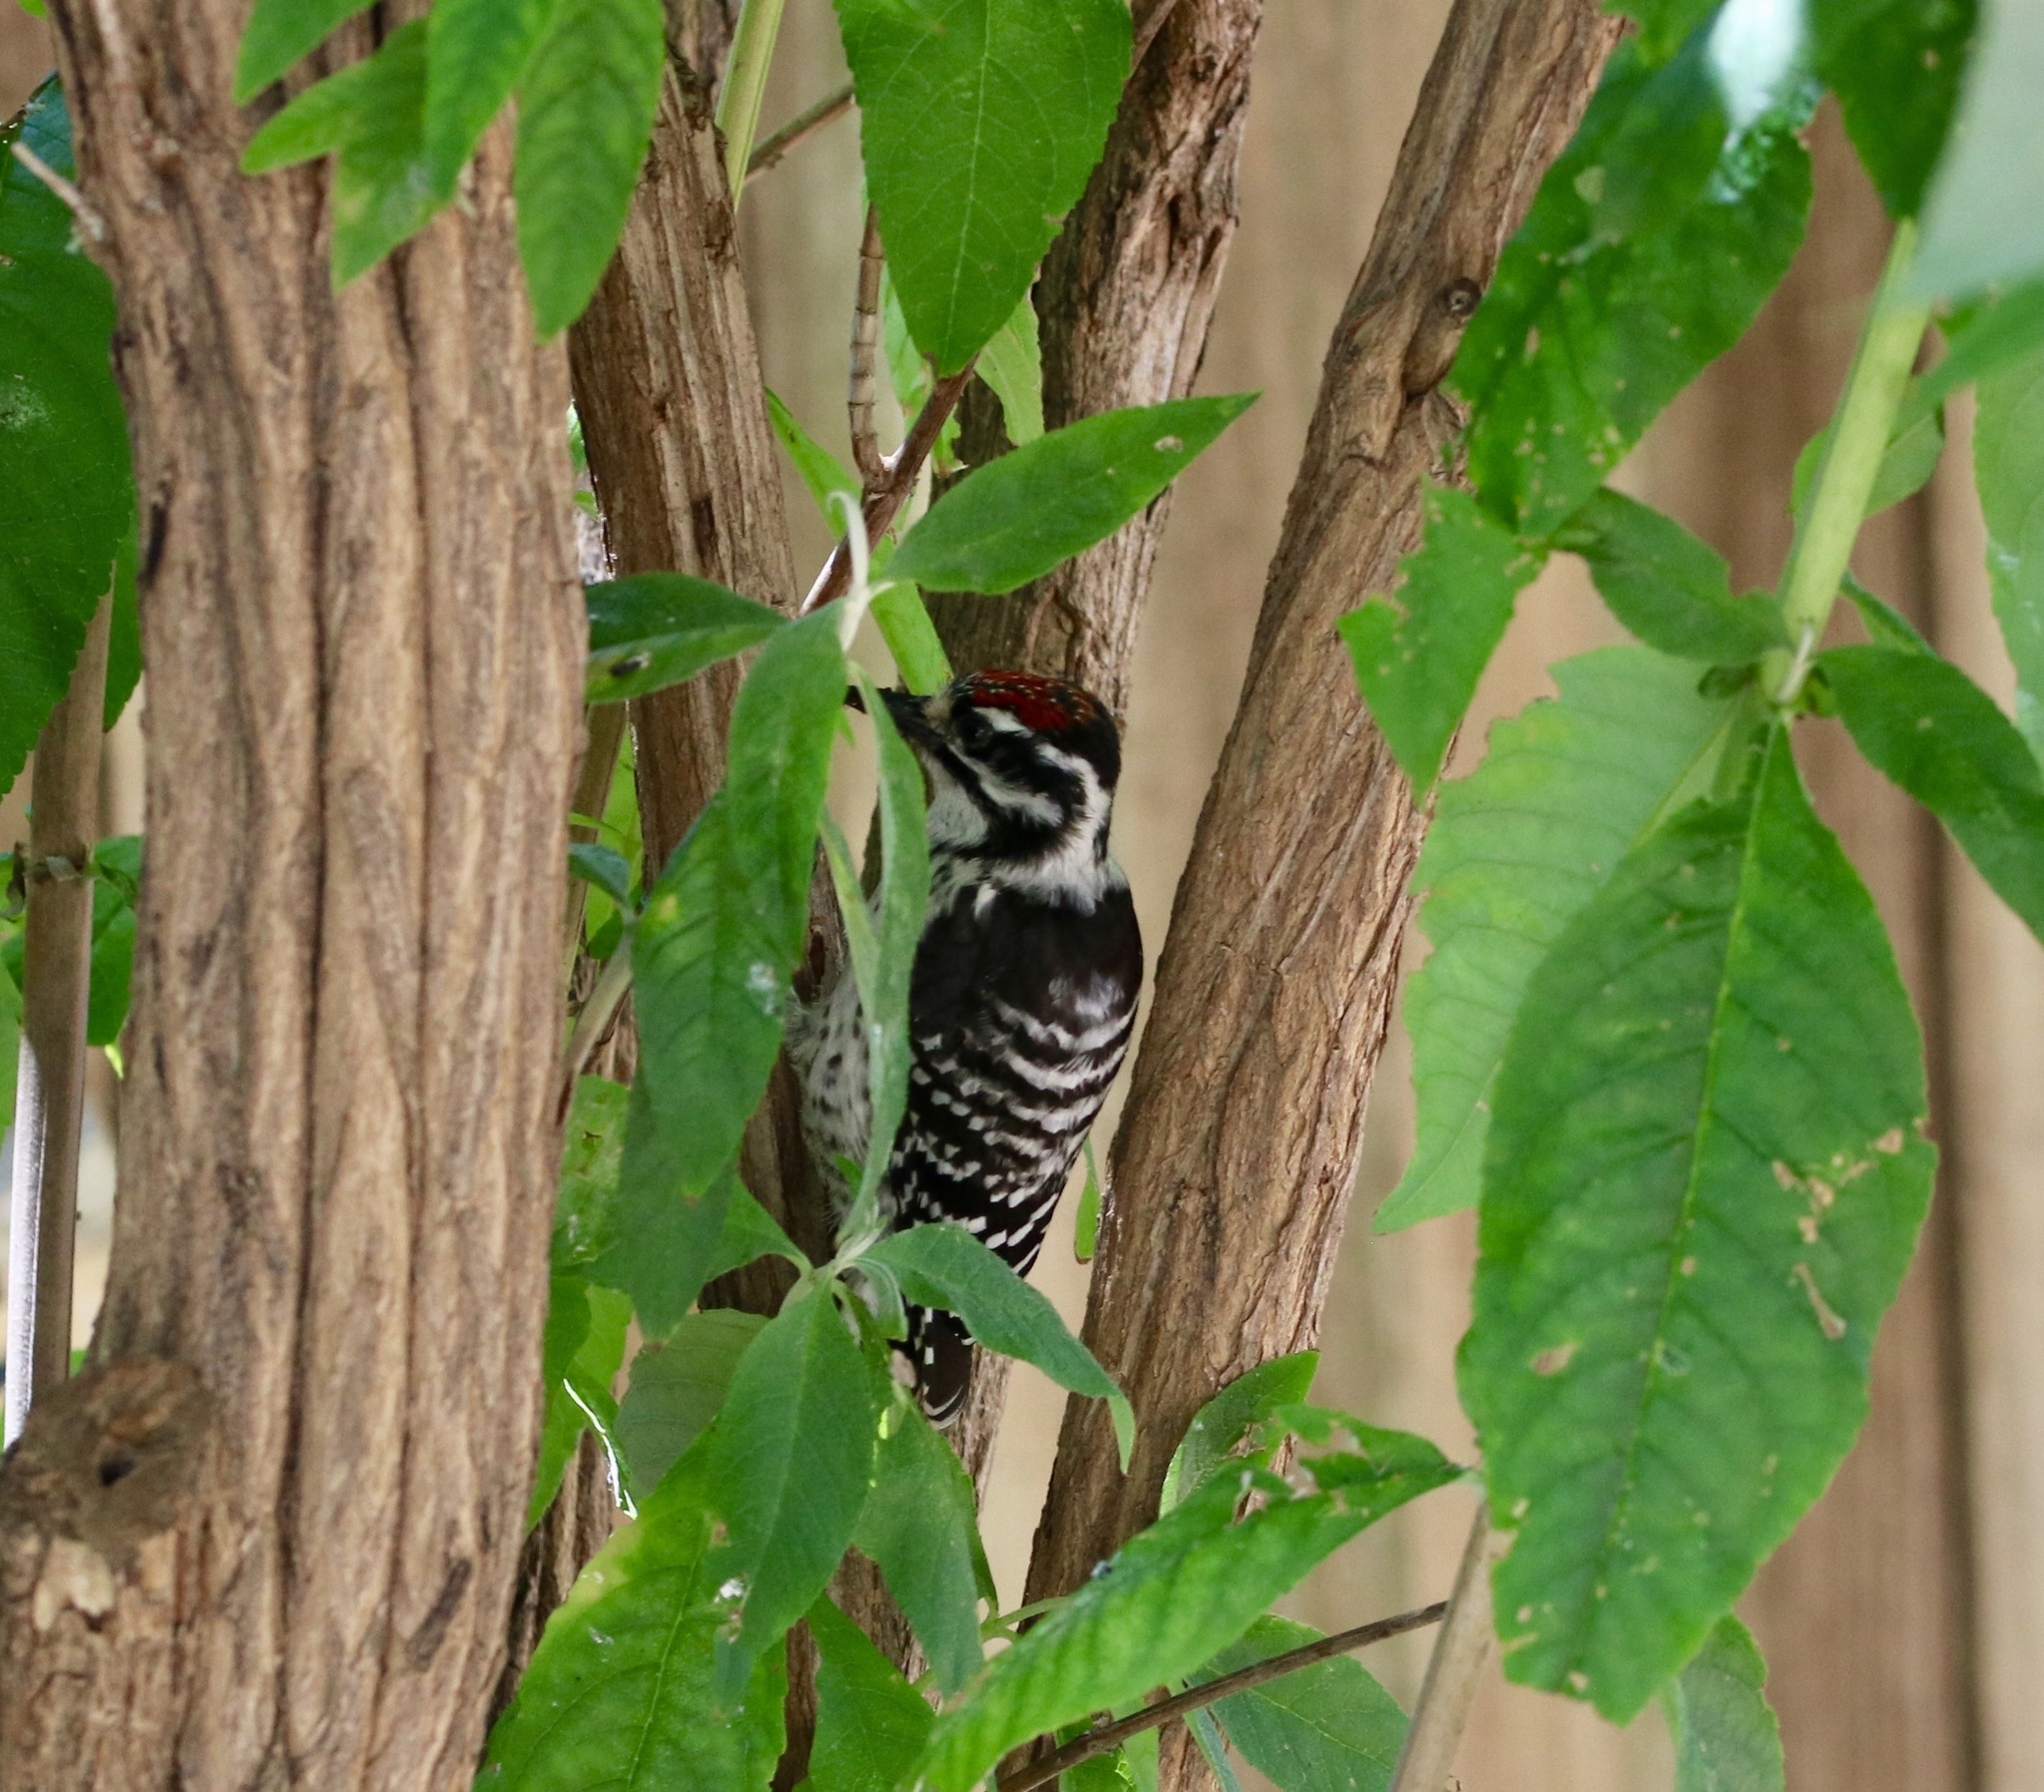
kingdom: Animalia
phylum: Chordata
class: Aves
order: Piciformes
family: Picidae
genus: Dryobates
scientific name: Dryobates nuttallii
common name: Nuttall's woodpecker
